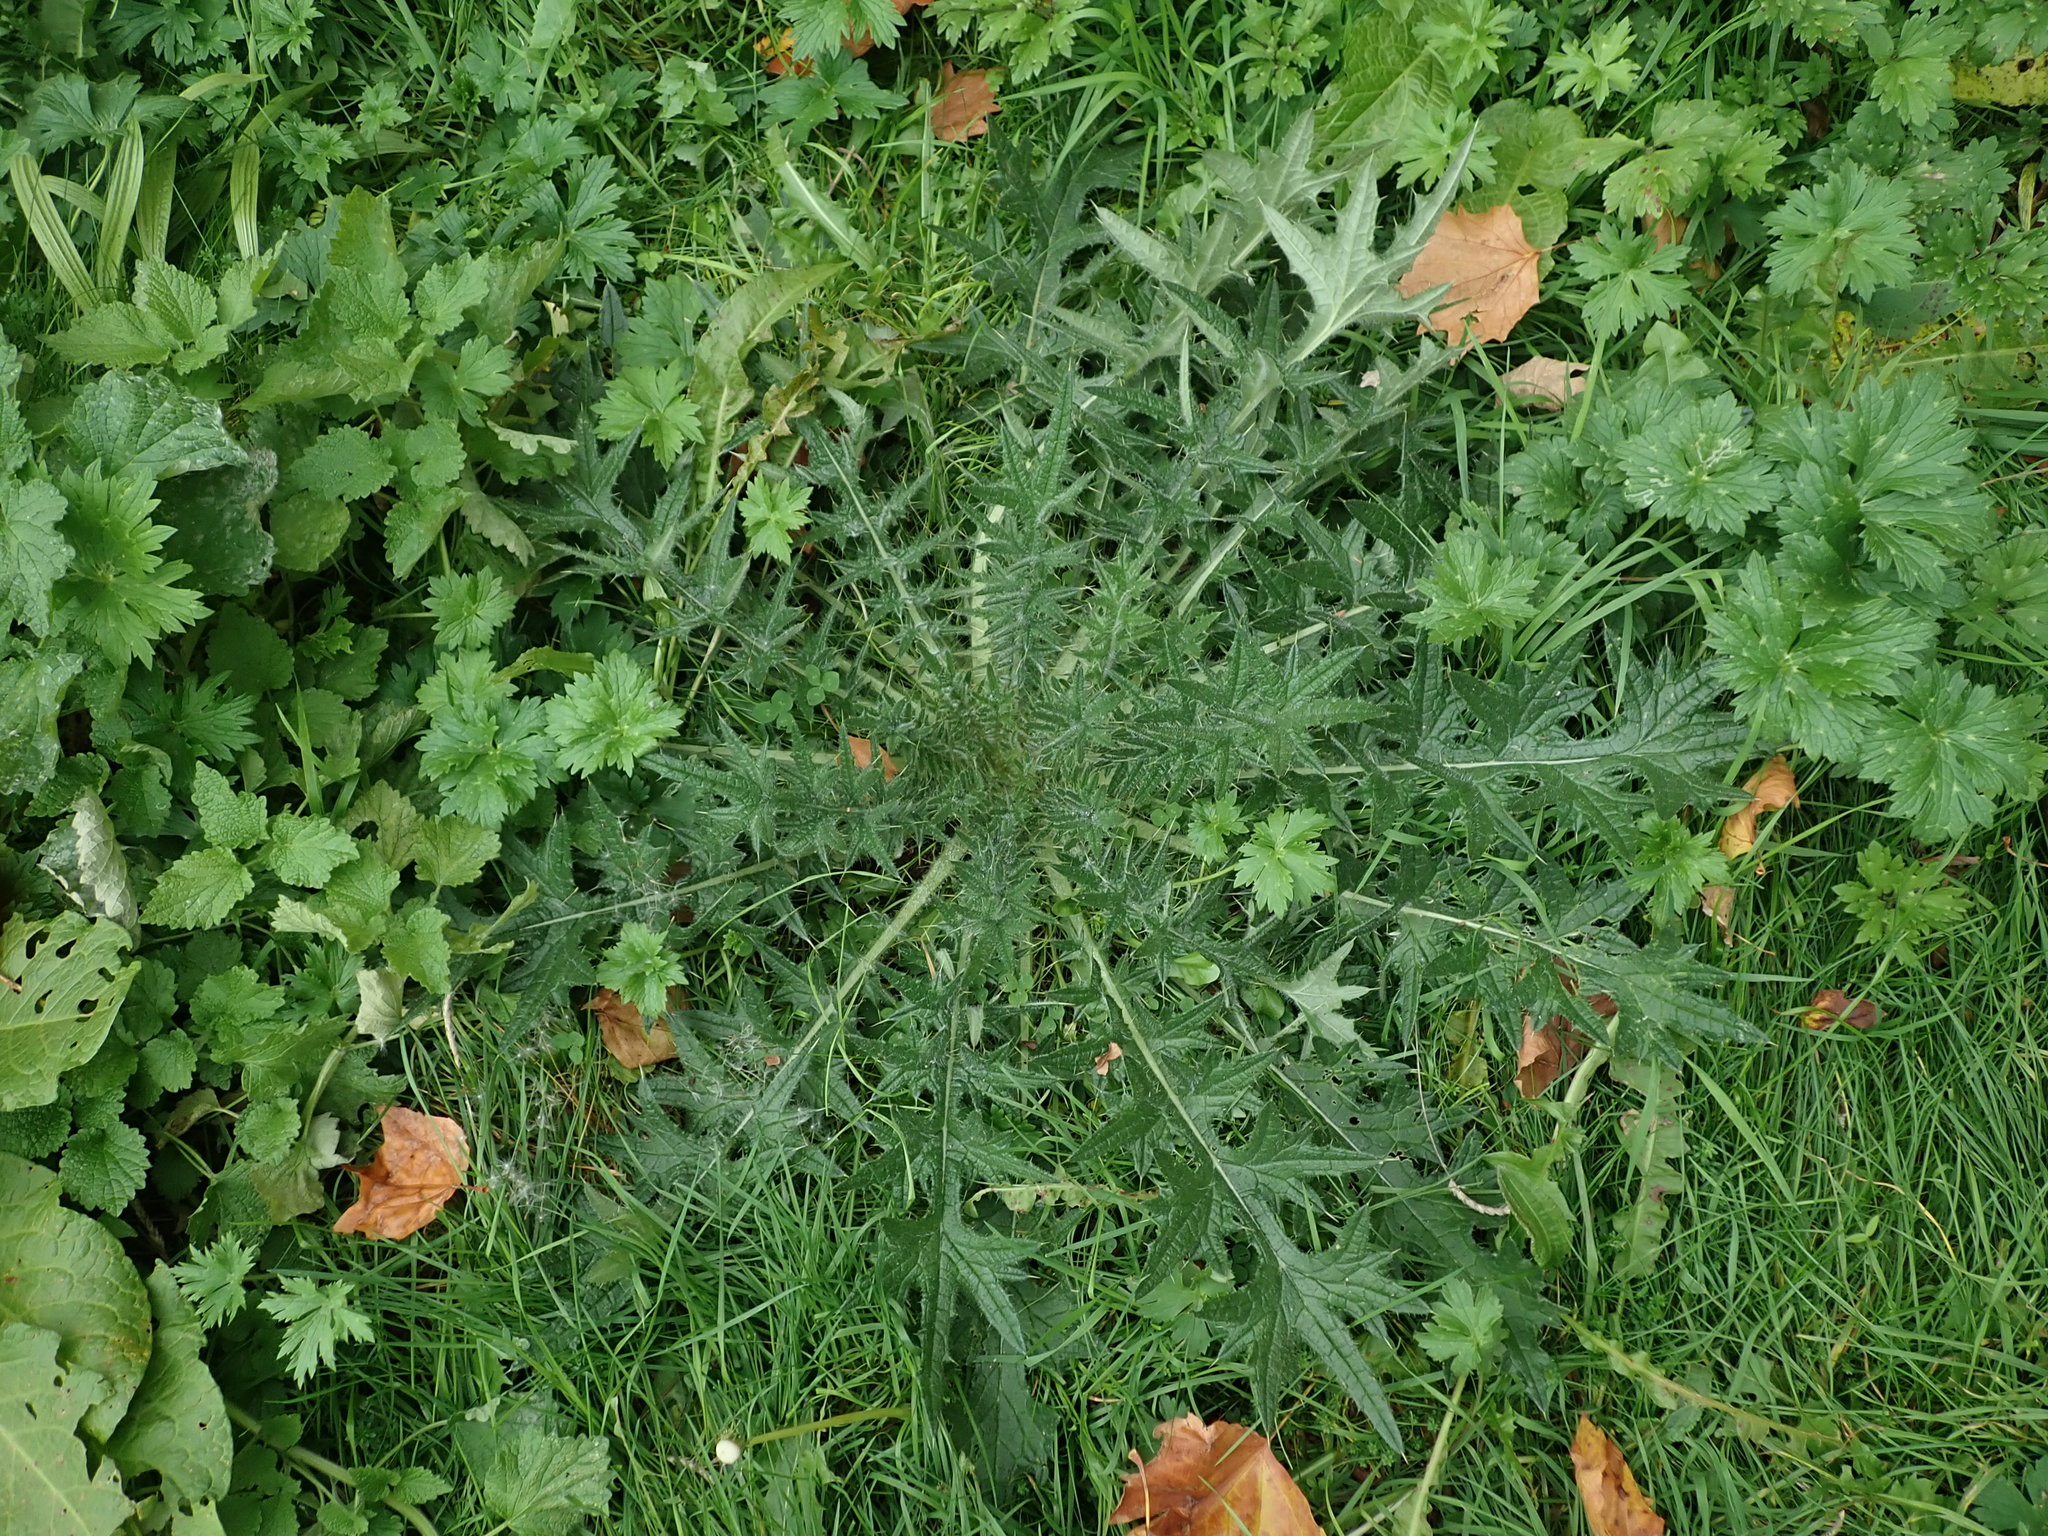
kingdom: Plantae
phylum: Tracheophyta
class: Magnoliopsida
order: Asterales
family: Asteraceae
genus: Cirsium
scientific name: Cirsium vulgare
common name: Bull thistle
